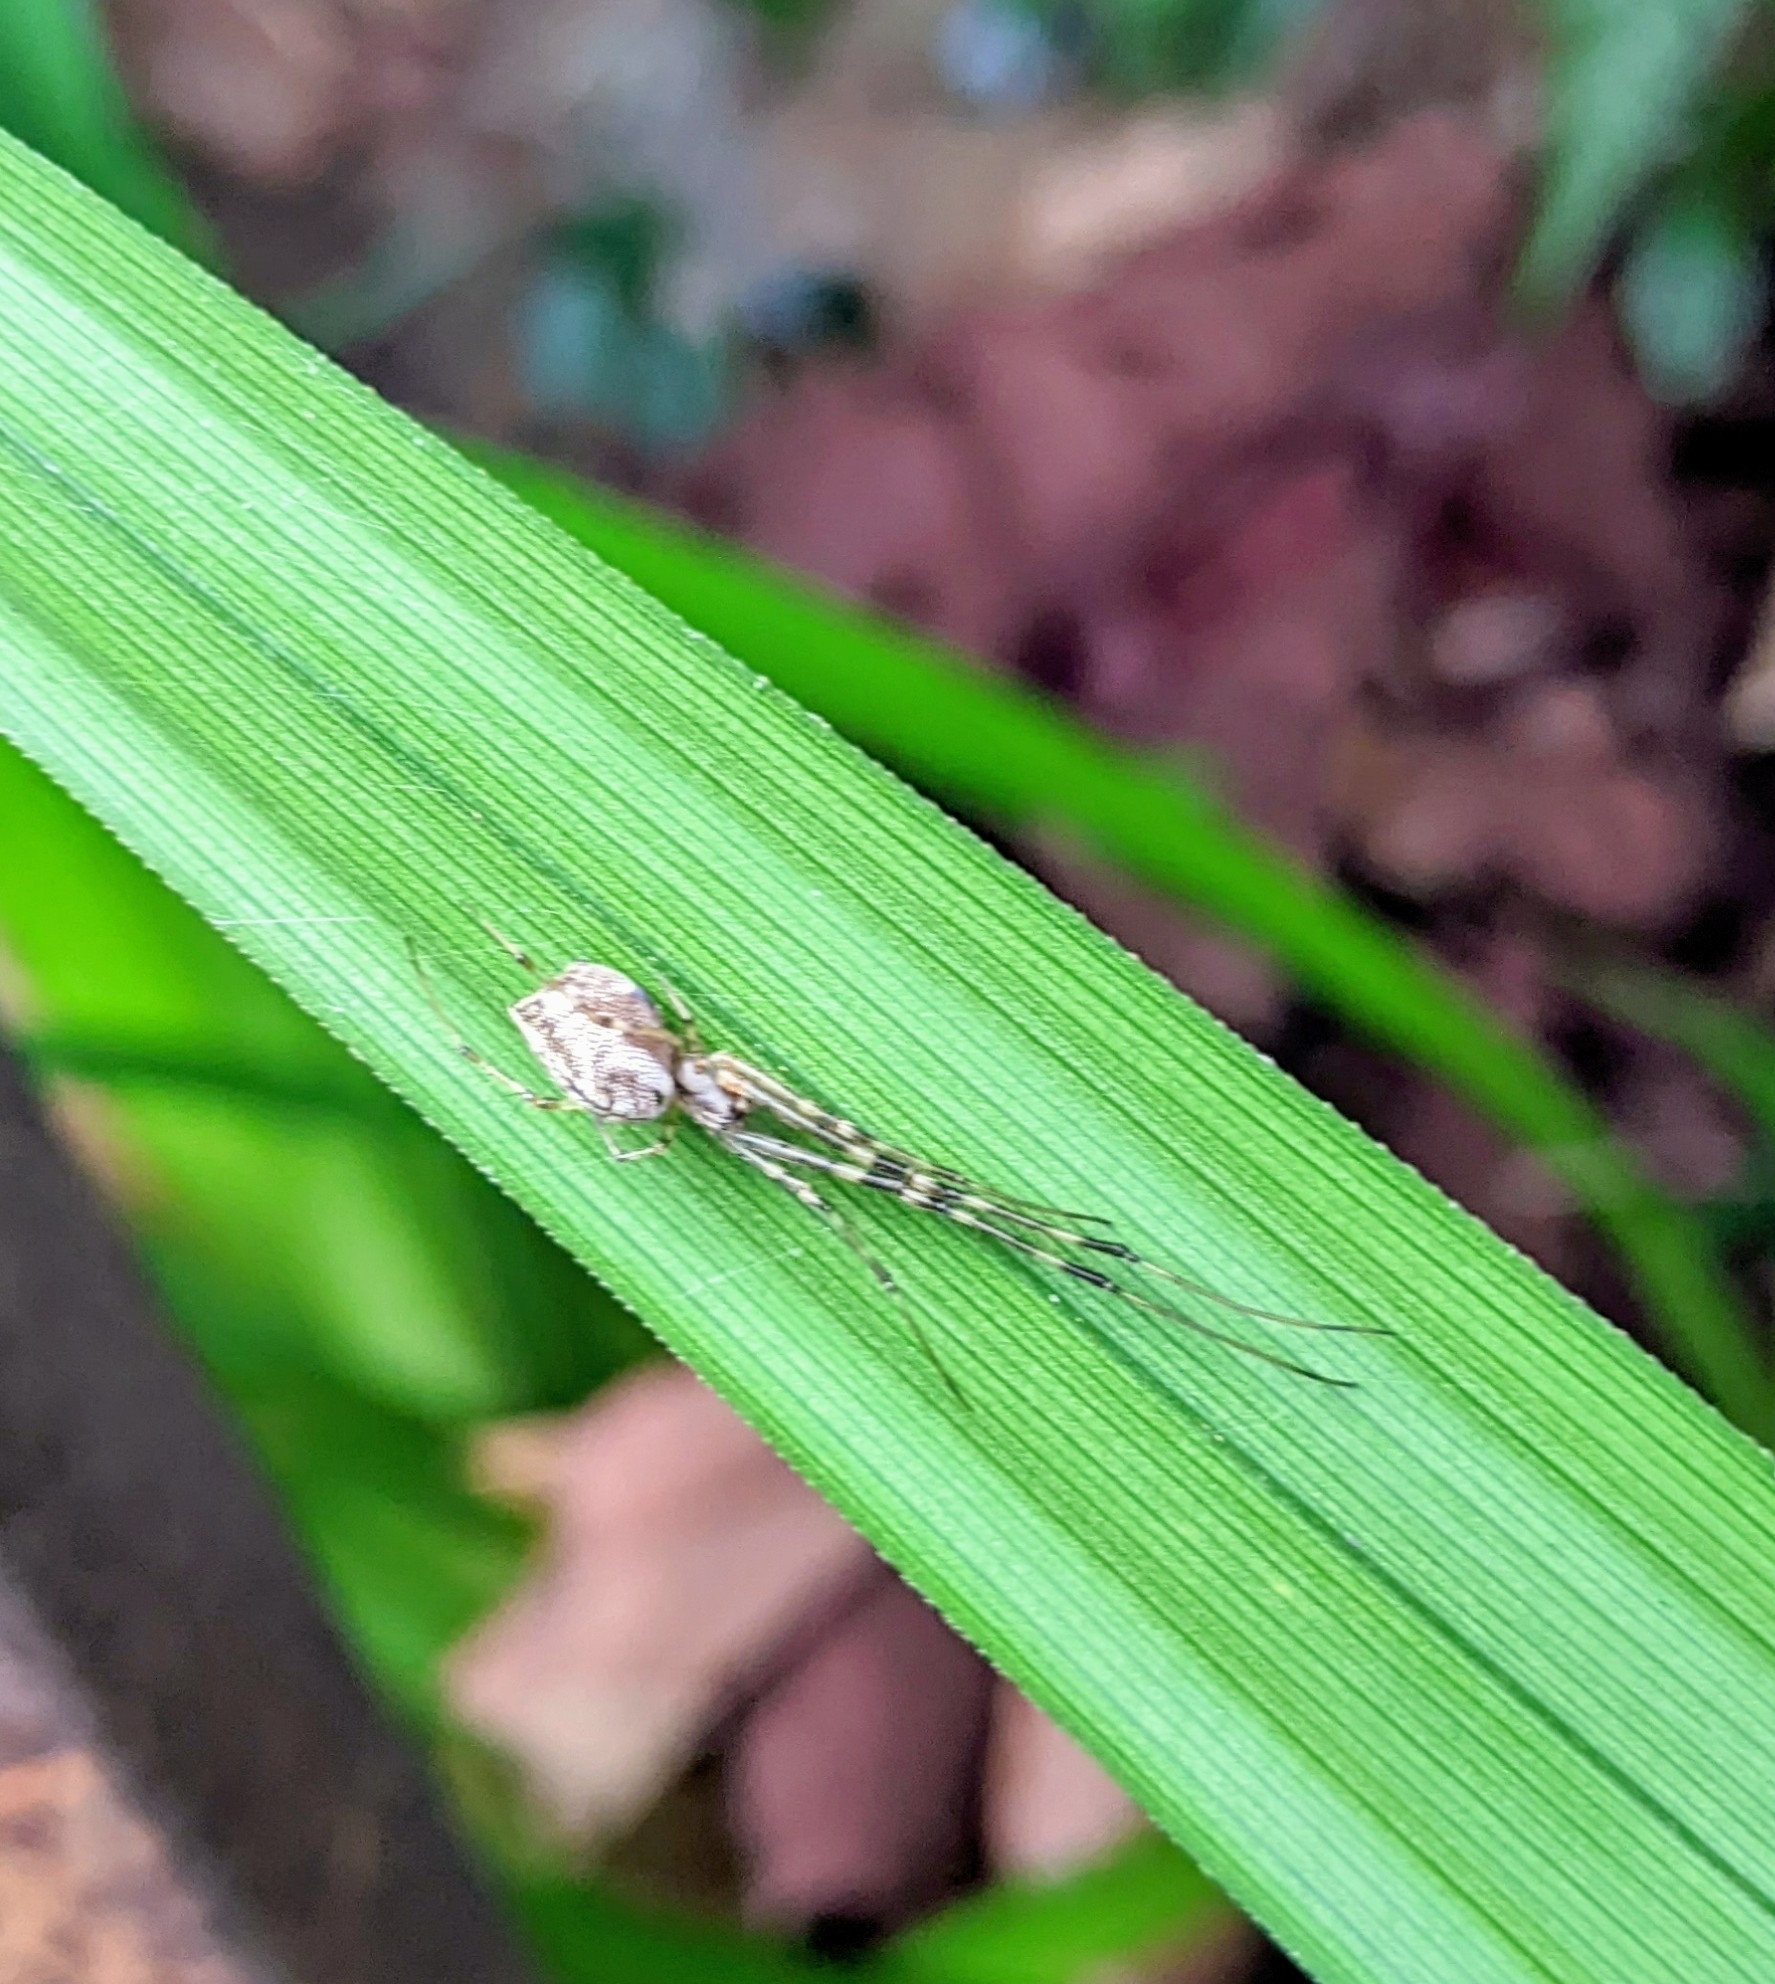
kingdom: Animalia
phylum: Arthropoda
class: Arachnida
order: Araneae
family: Tetragnathidae
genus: Tylorida
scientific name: Tylorida ventralis
